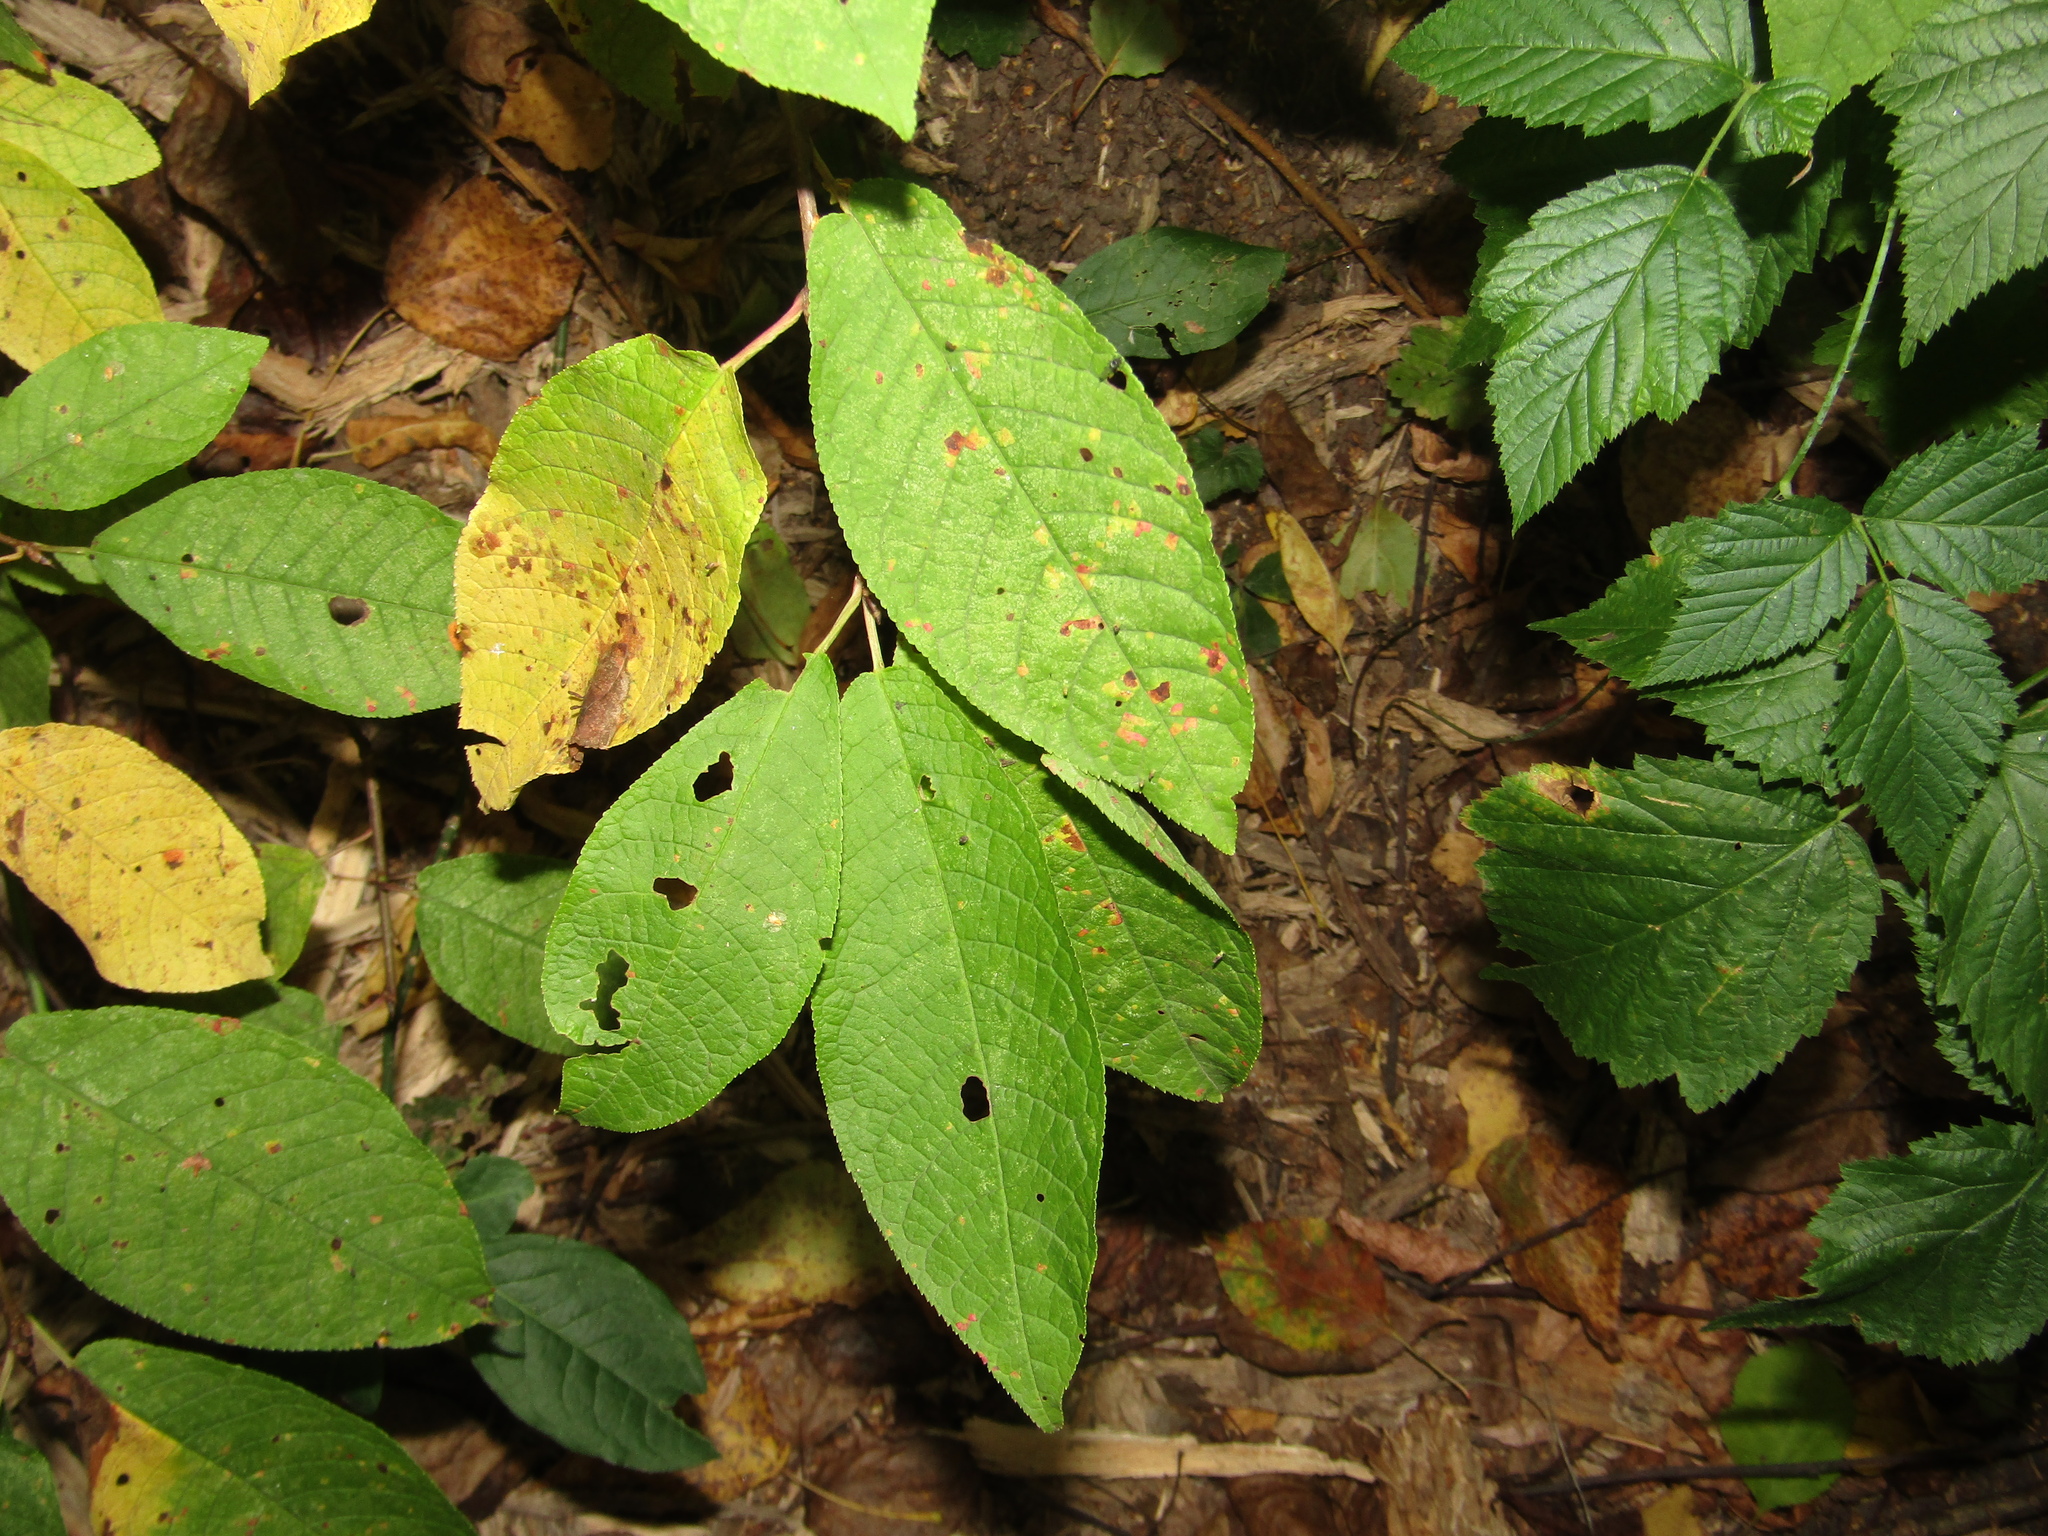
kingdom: Plantae
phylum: Tracheophyta
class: Magnoliopsida
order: Rosales
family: Rosaceae
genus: Prunus
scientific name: Prunus padus
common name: Bird cherry
